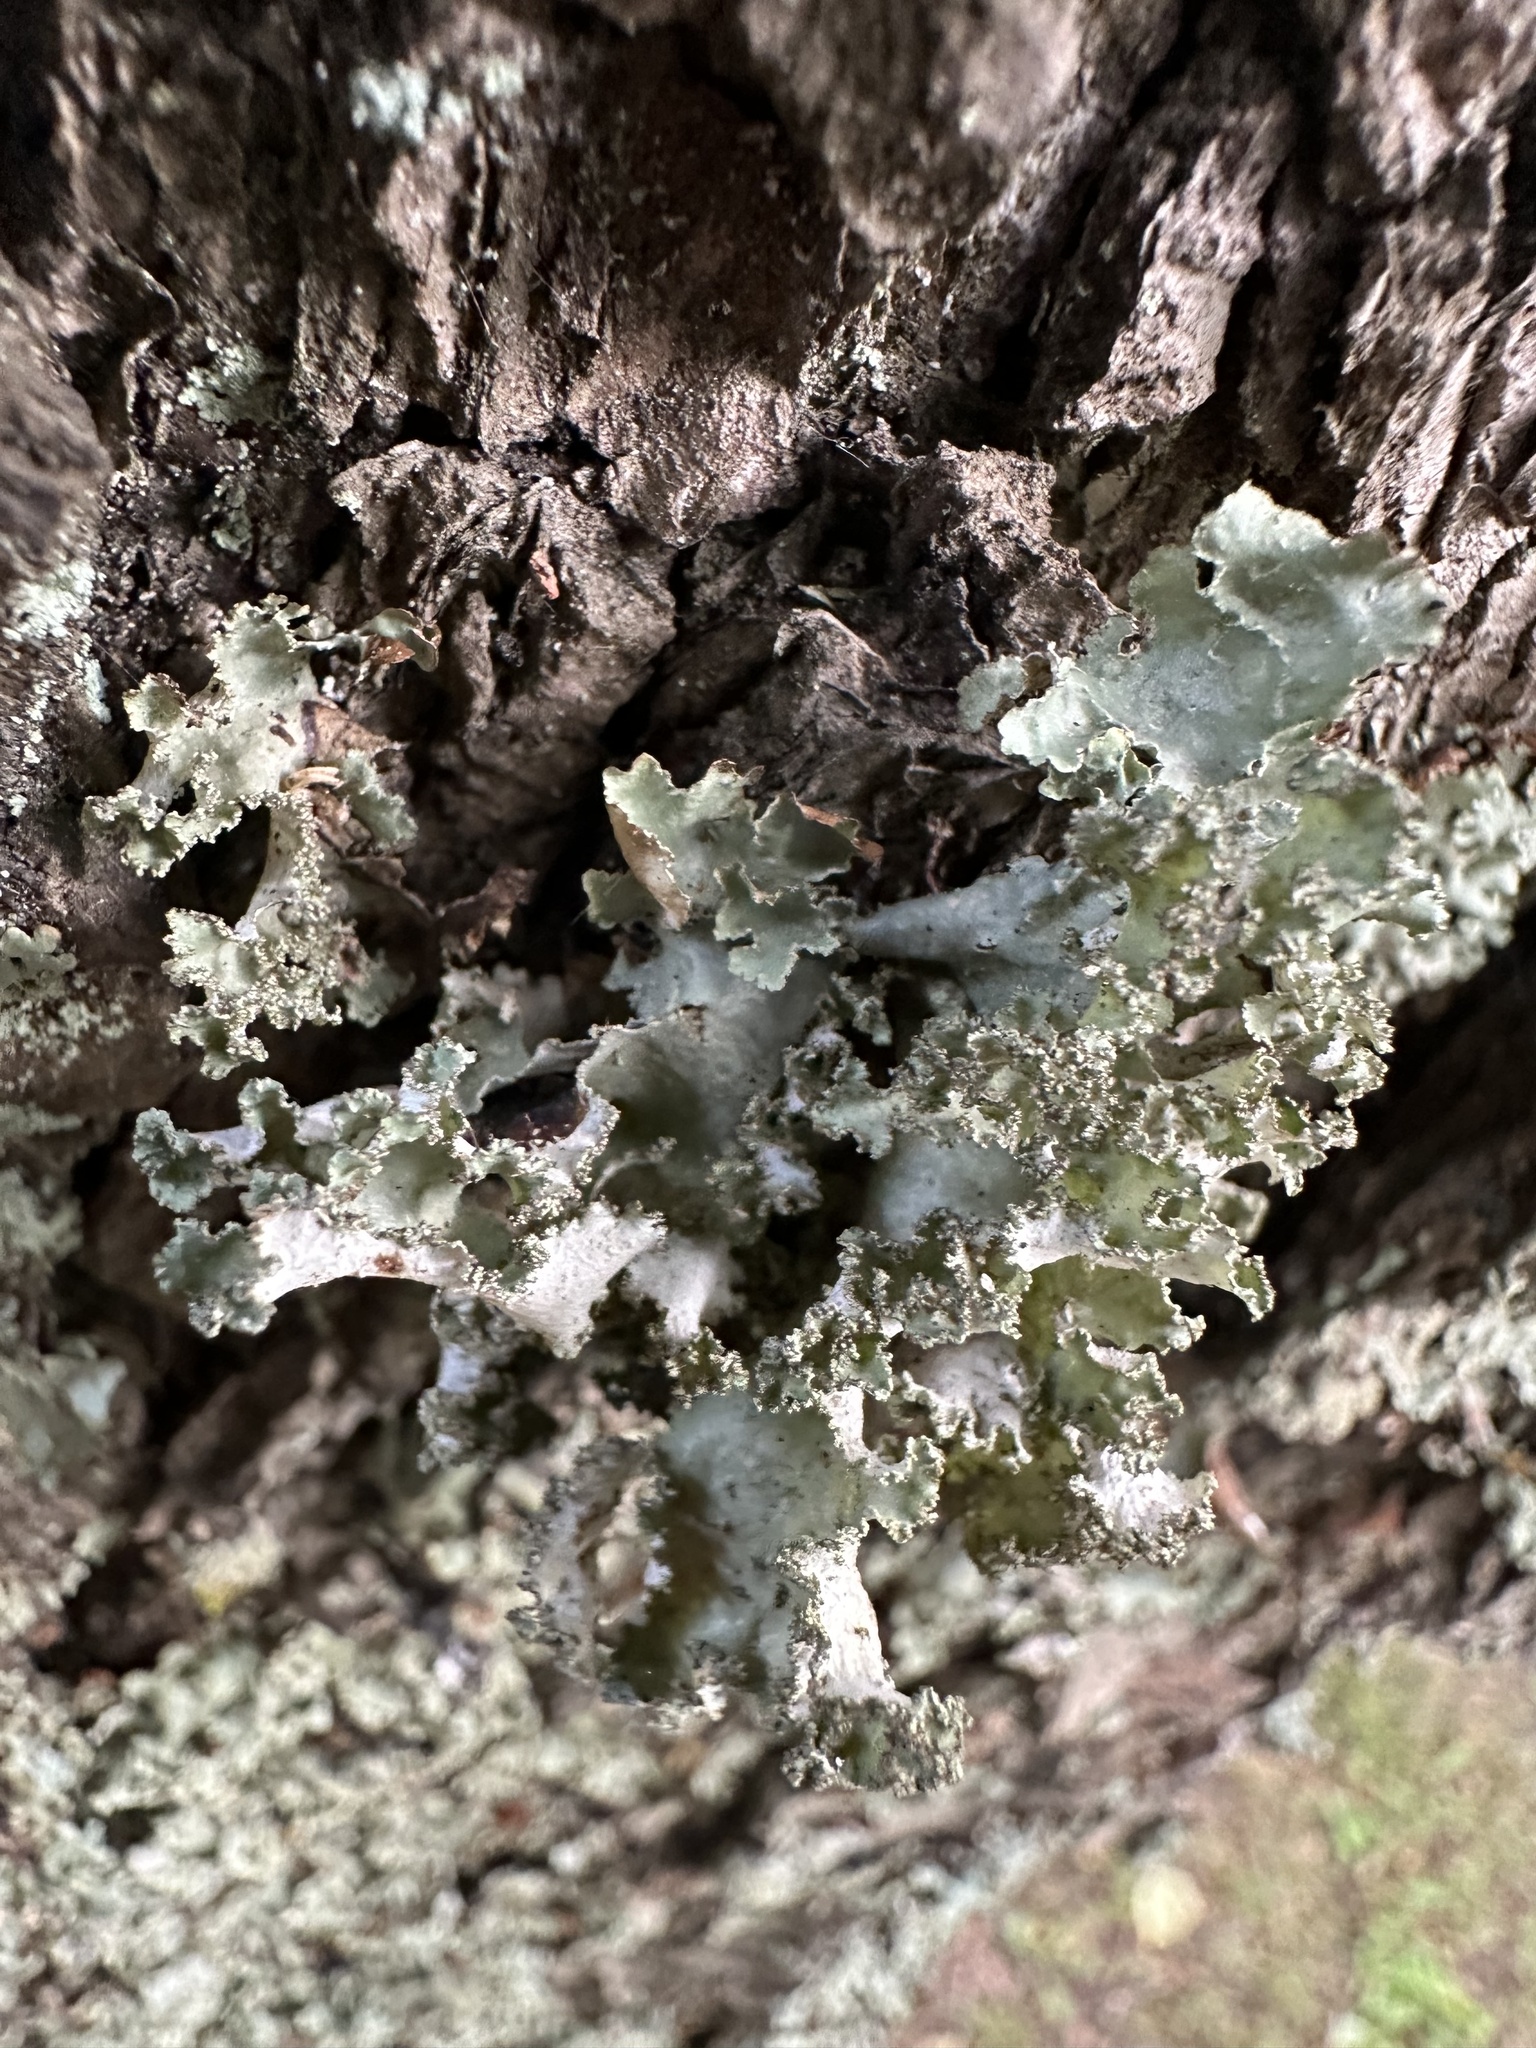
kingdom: Fungi
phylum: Ascomycota
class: Lecanoromycetes
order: Lecanorales
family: Parmeliaceae
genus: Platismatia
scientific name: Platismatia glauca
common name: Varied rag lichen
